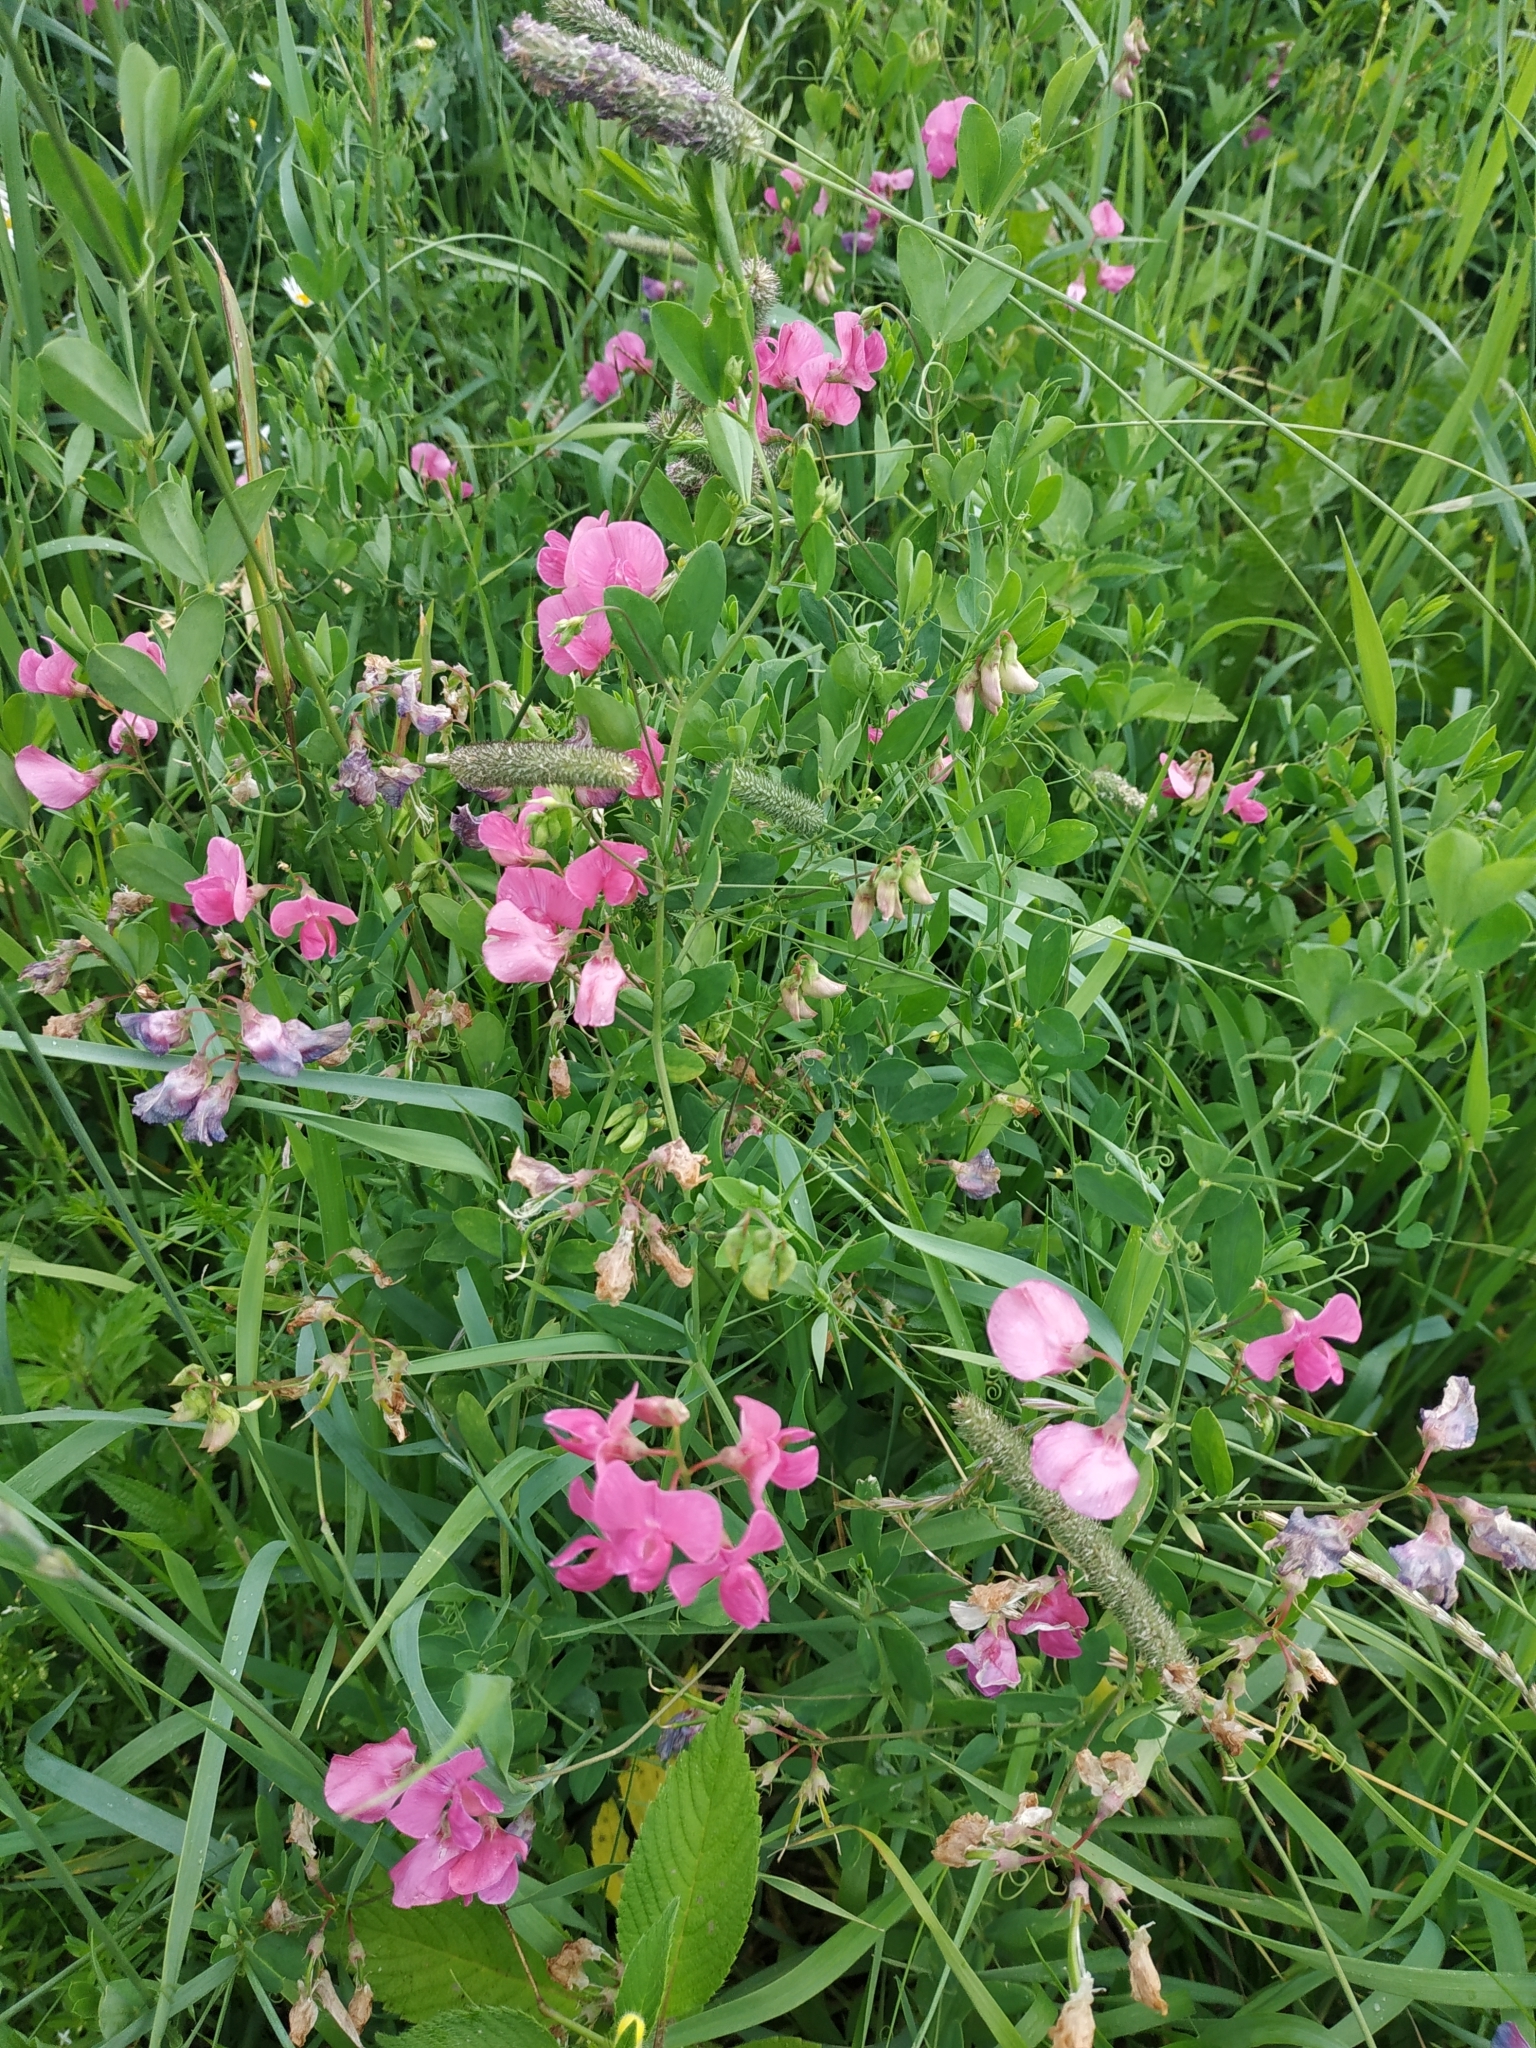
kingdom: Plantae
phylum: Tracheophyta
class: Magnoliopsida
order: Fabales
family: Fabaceae
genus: Lathyrus
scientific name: Lathyrus tuberosus
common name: Tuberous pea
